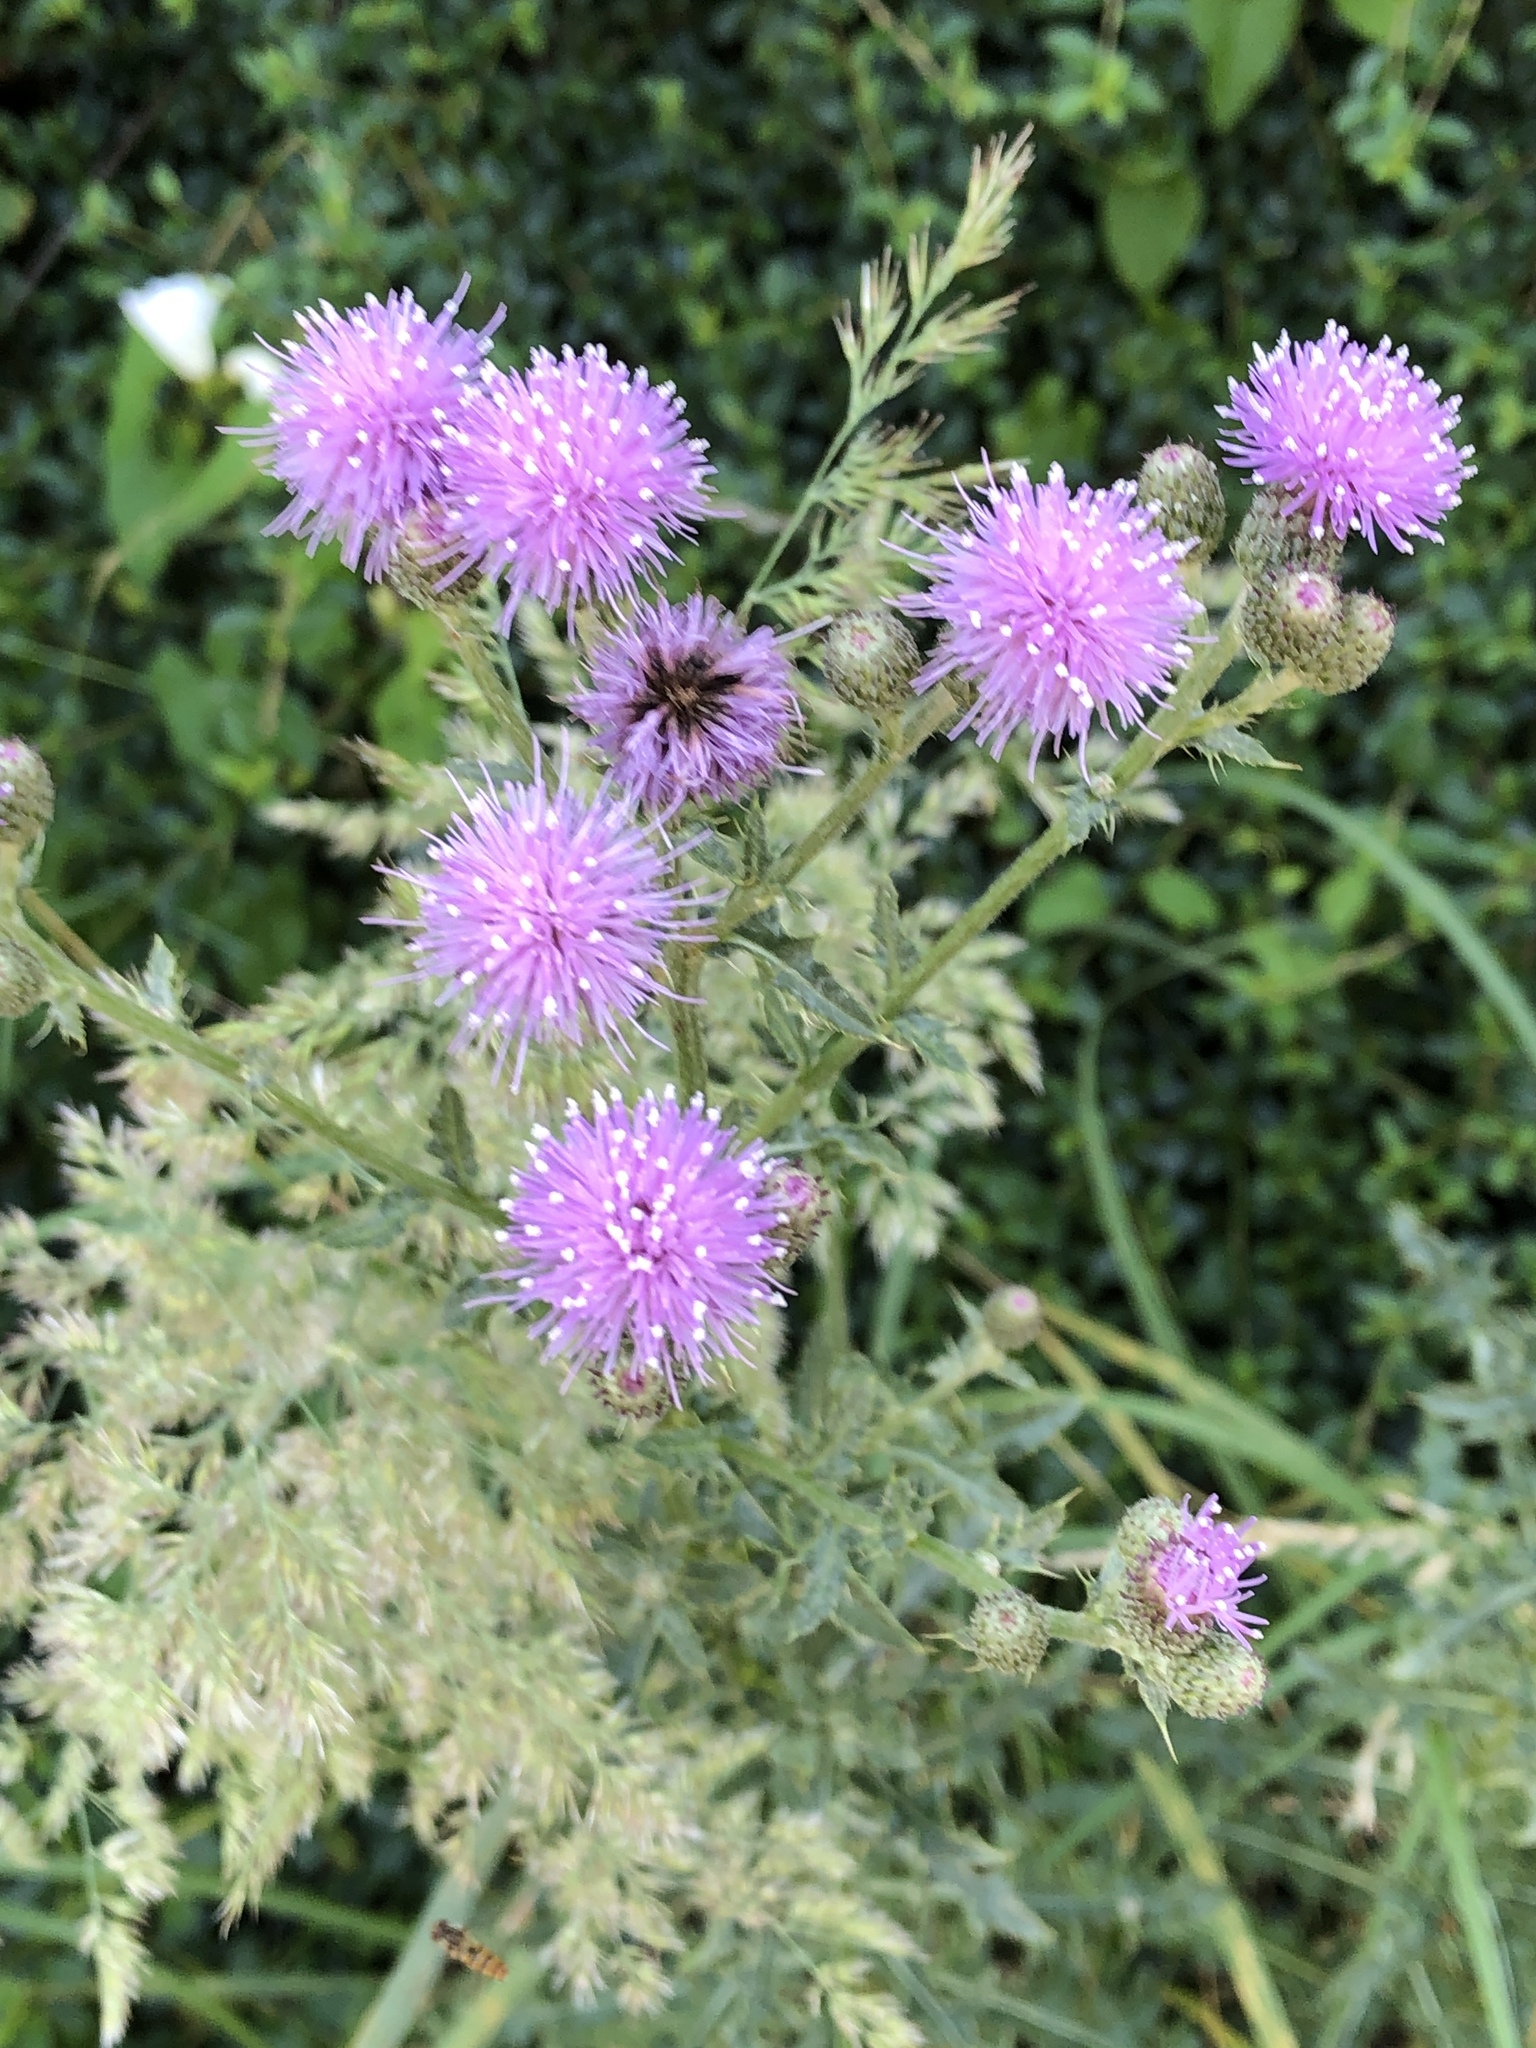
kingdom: Plantae
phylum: Tracheophyta
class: Magnoliopsida
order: Asterales
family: Asteraceae
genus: Cirsium
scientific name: Cirsium arvense
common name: Creeping thistle
